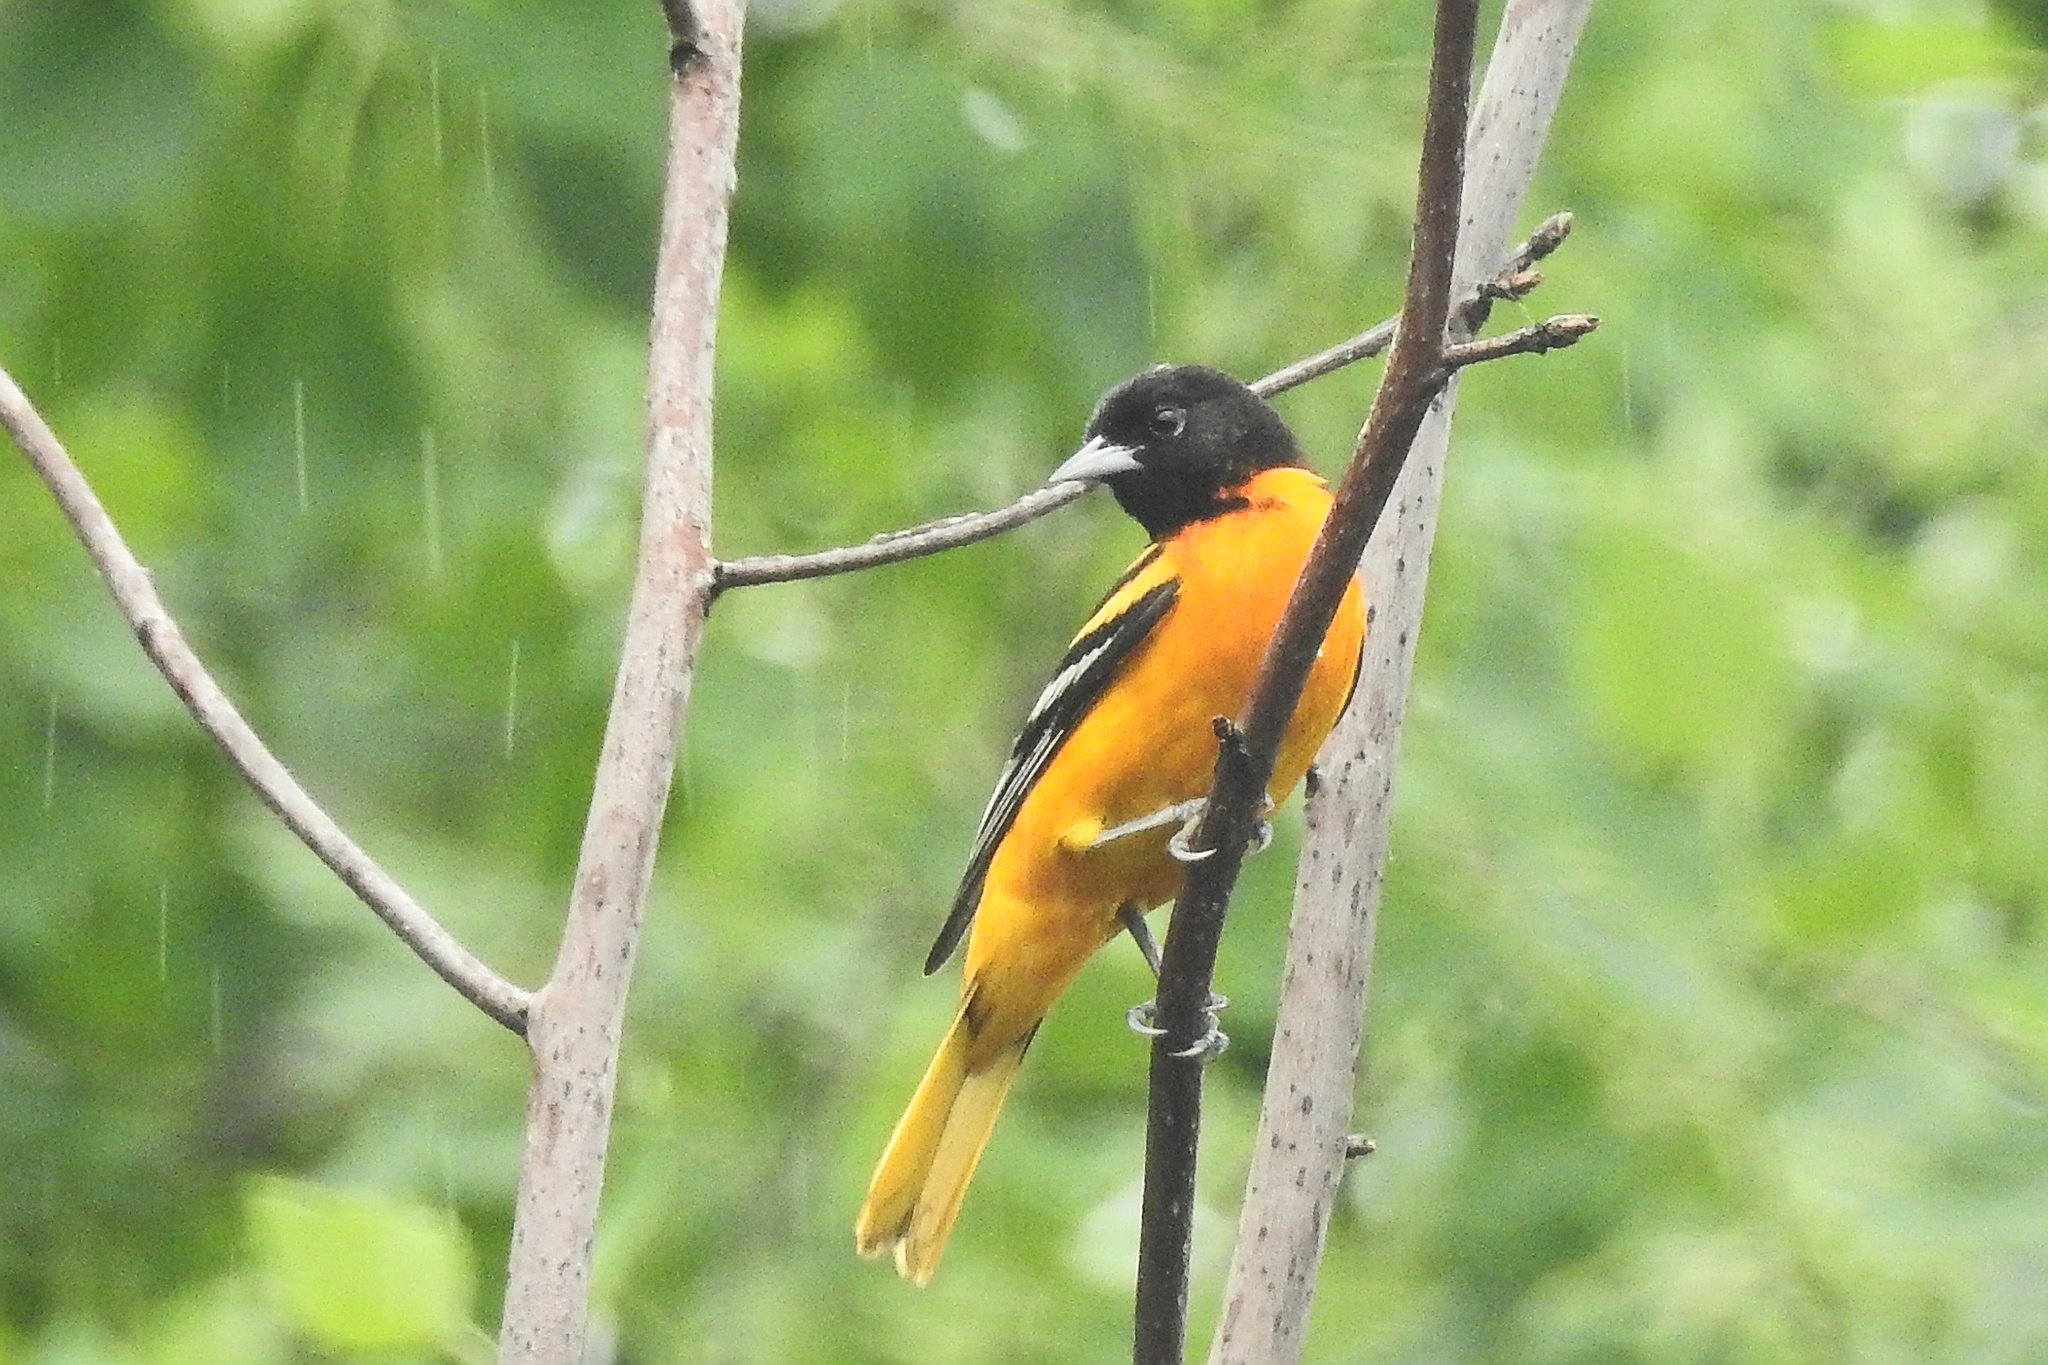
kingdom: Animalia
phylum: Chordata
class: Aves
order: Passeriformes
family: Icteridae
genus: Icterus
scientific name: Icterus galbula
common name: Baltimore oriole
